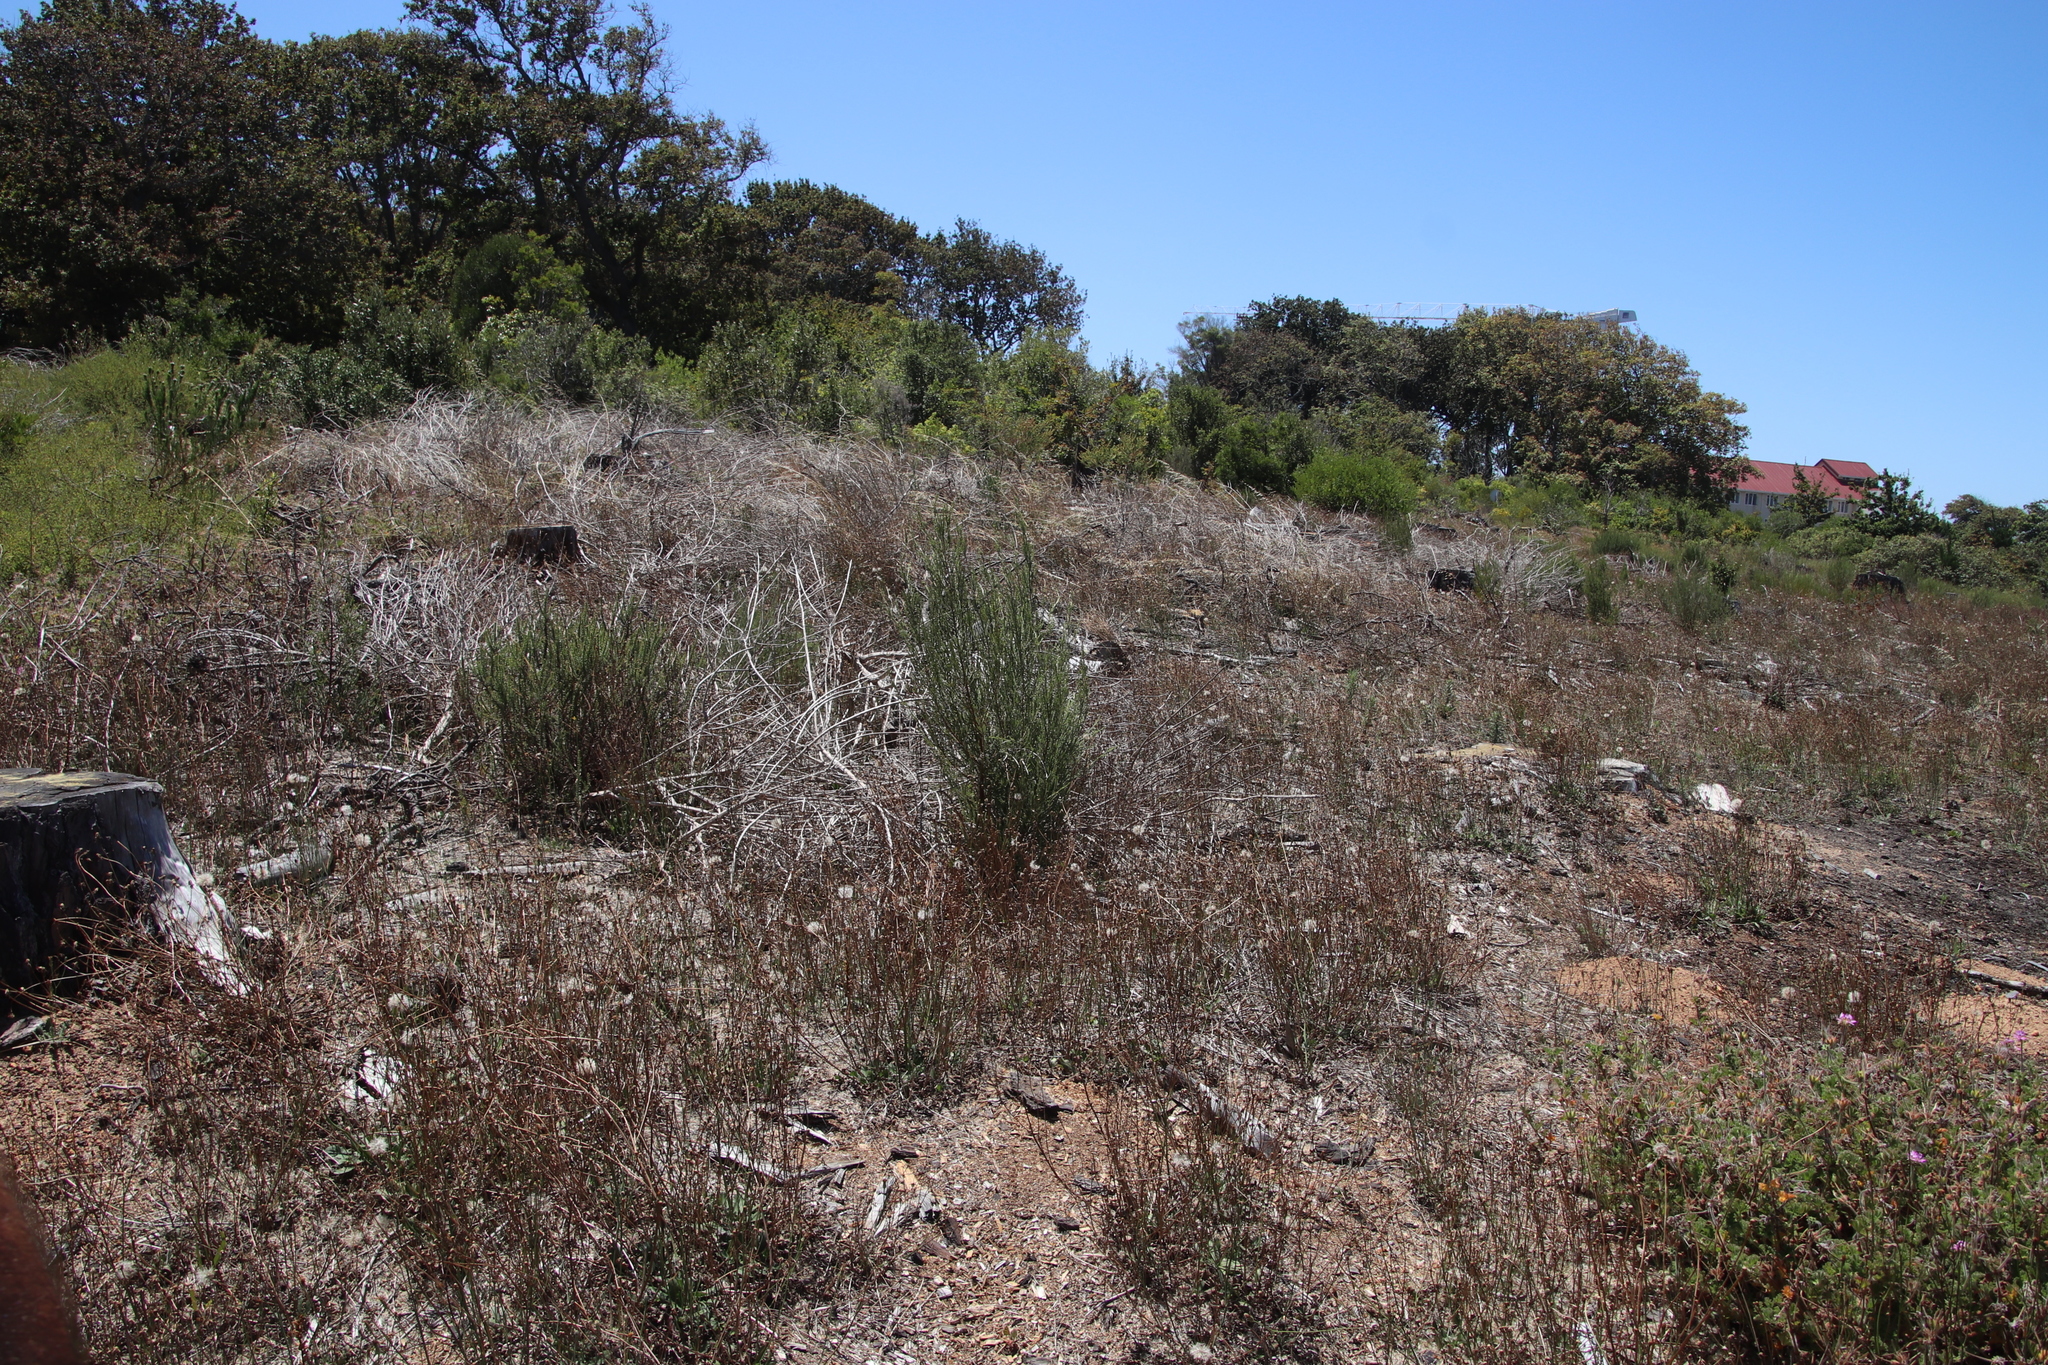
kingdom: Plantae
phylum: Tracheophyta
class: Magnoliopsida
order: Malvales
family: Thymelaeaceae
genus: Passerina
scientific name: Passerina corymbosa
